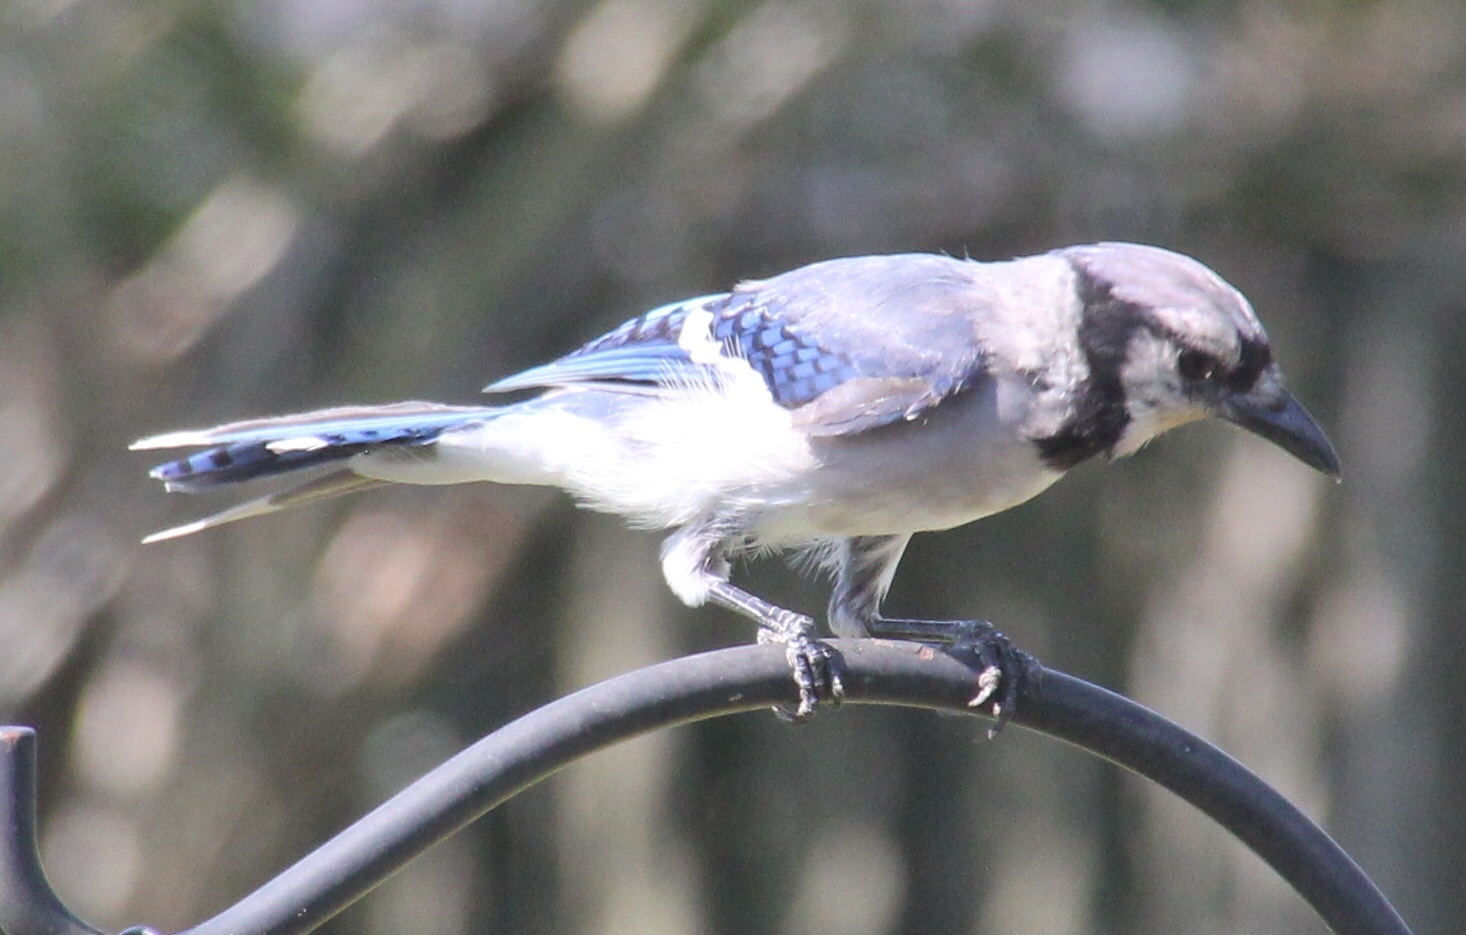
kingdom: Animalia
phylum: Chordata
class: Aves
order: Passeriformes
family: Corvidae
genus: Cyanocitta
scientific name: Cyanocitta cristata
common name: Blue jay
